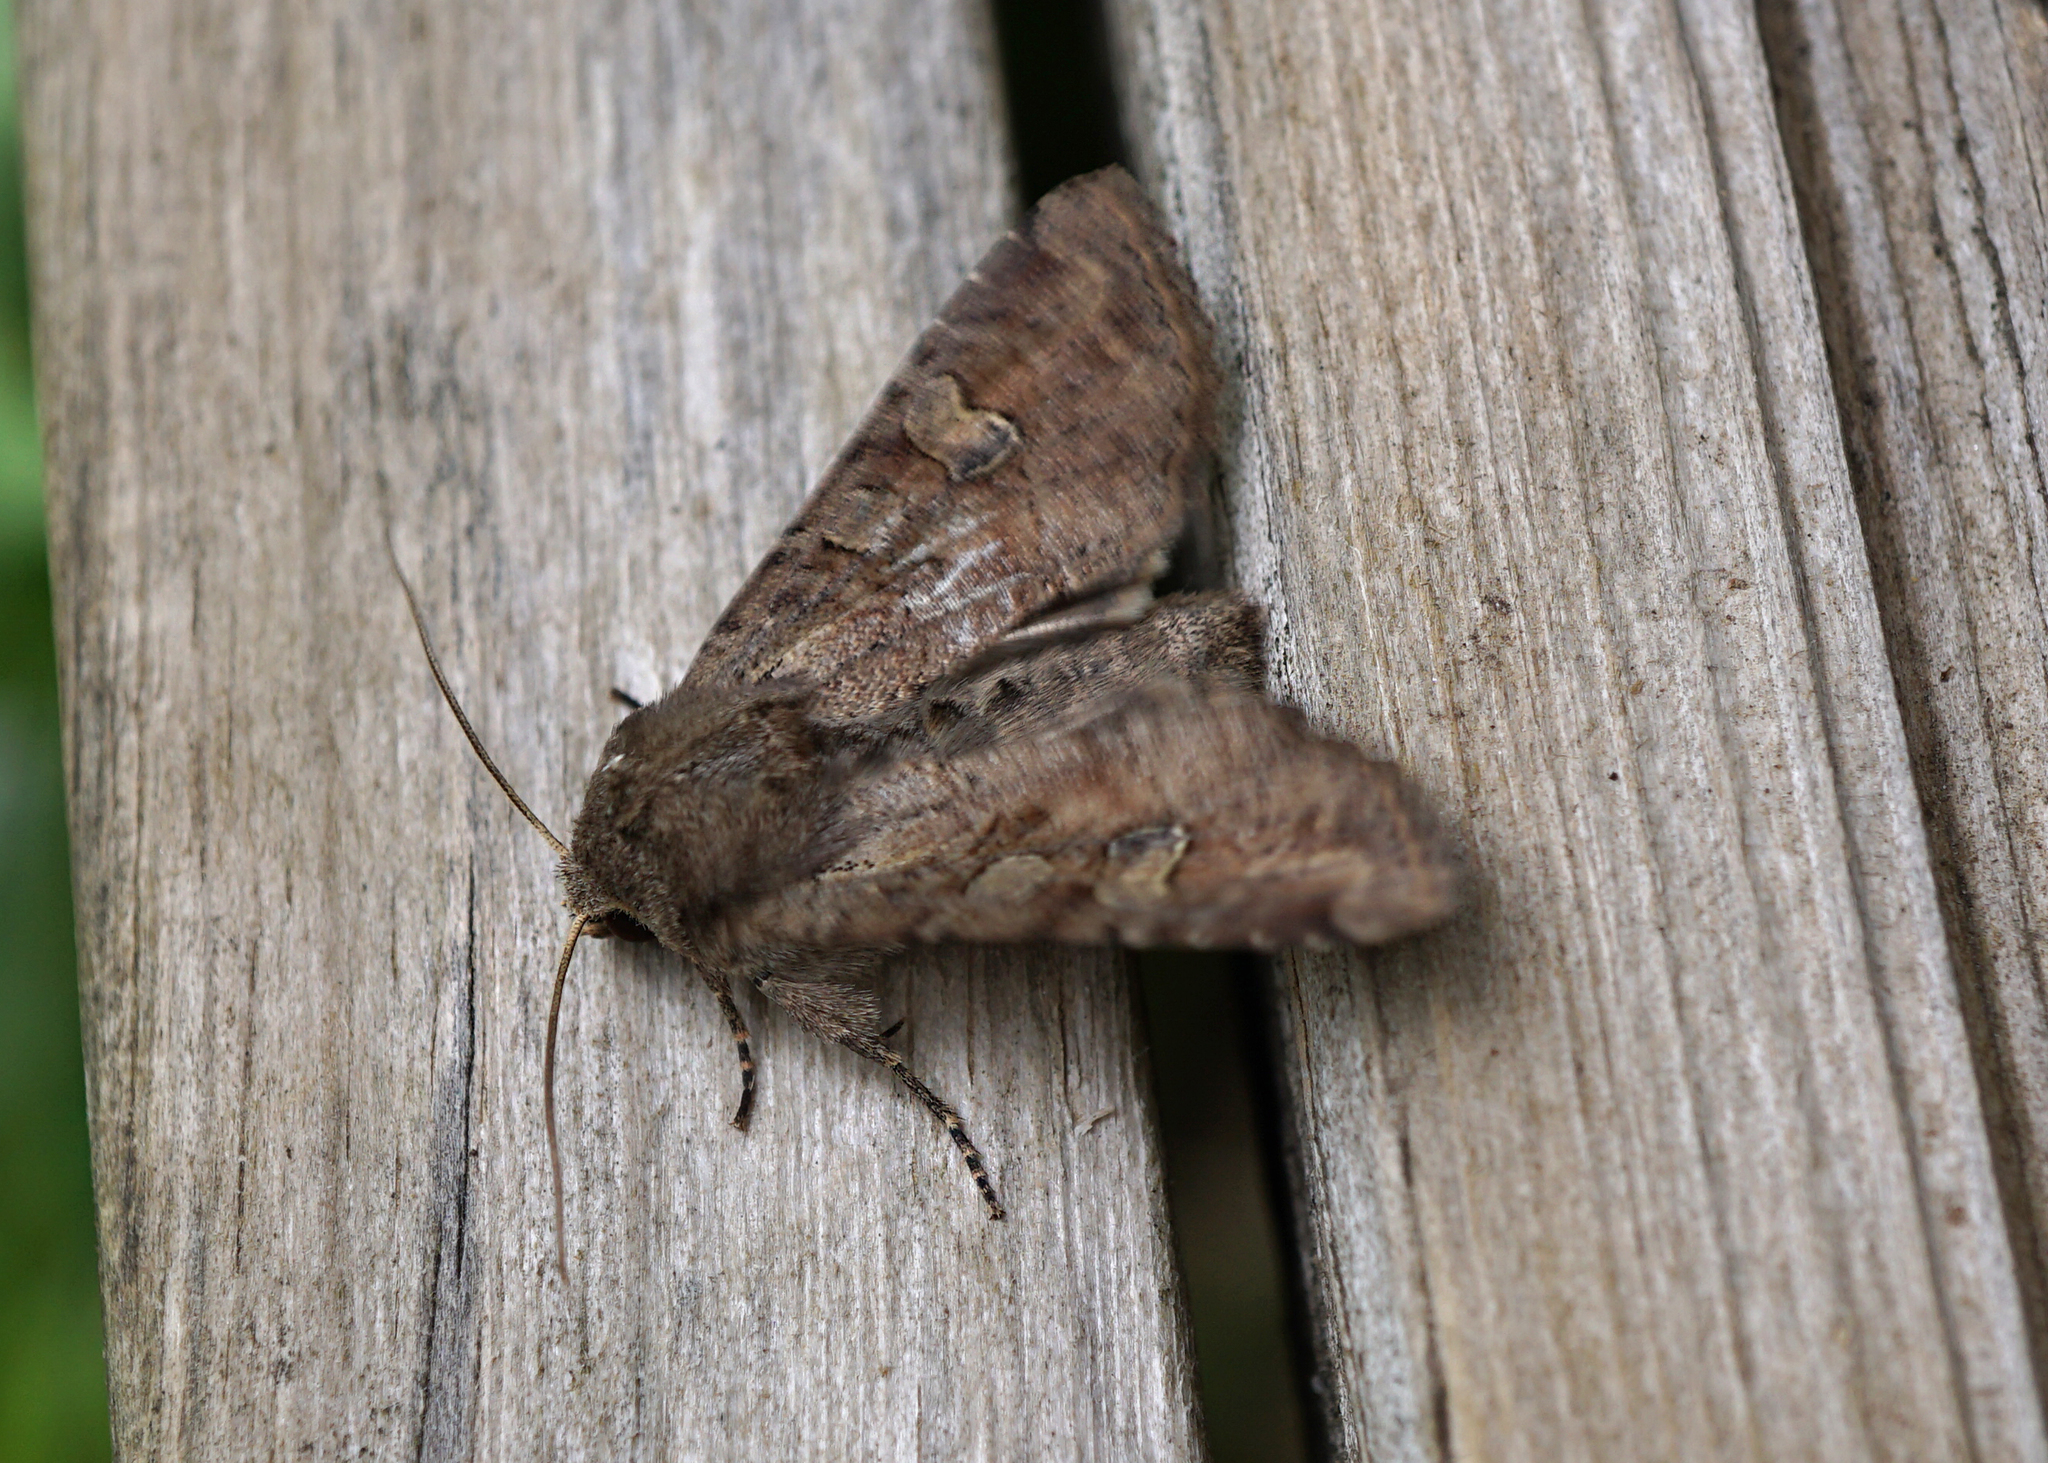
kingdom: Animalia
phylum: Arthropoda
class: Insecta
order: Lepidoptera
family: Noctuidae
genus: Apamea
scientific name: Apamea sordens
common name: Rustic shoulder-knot
